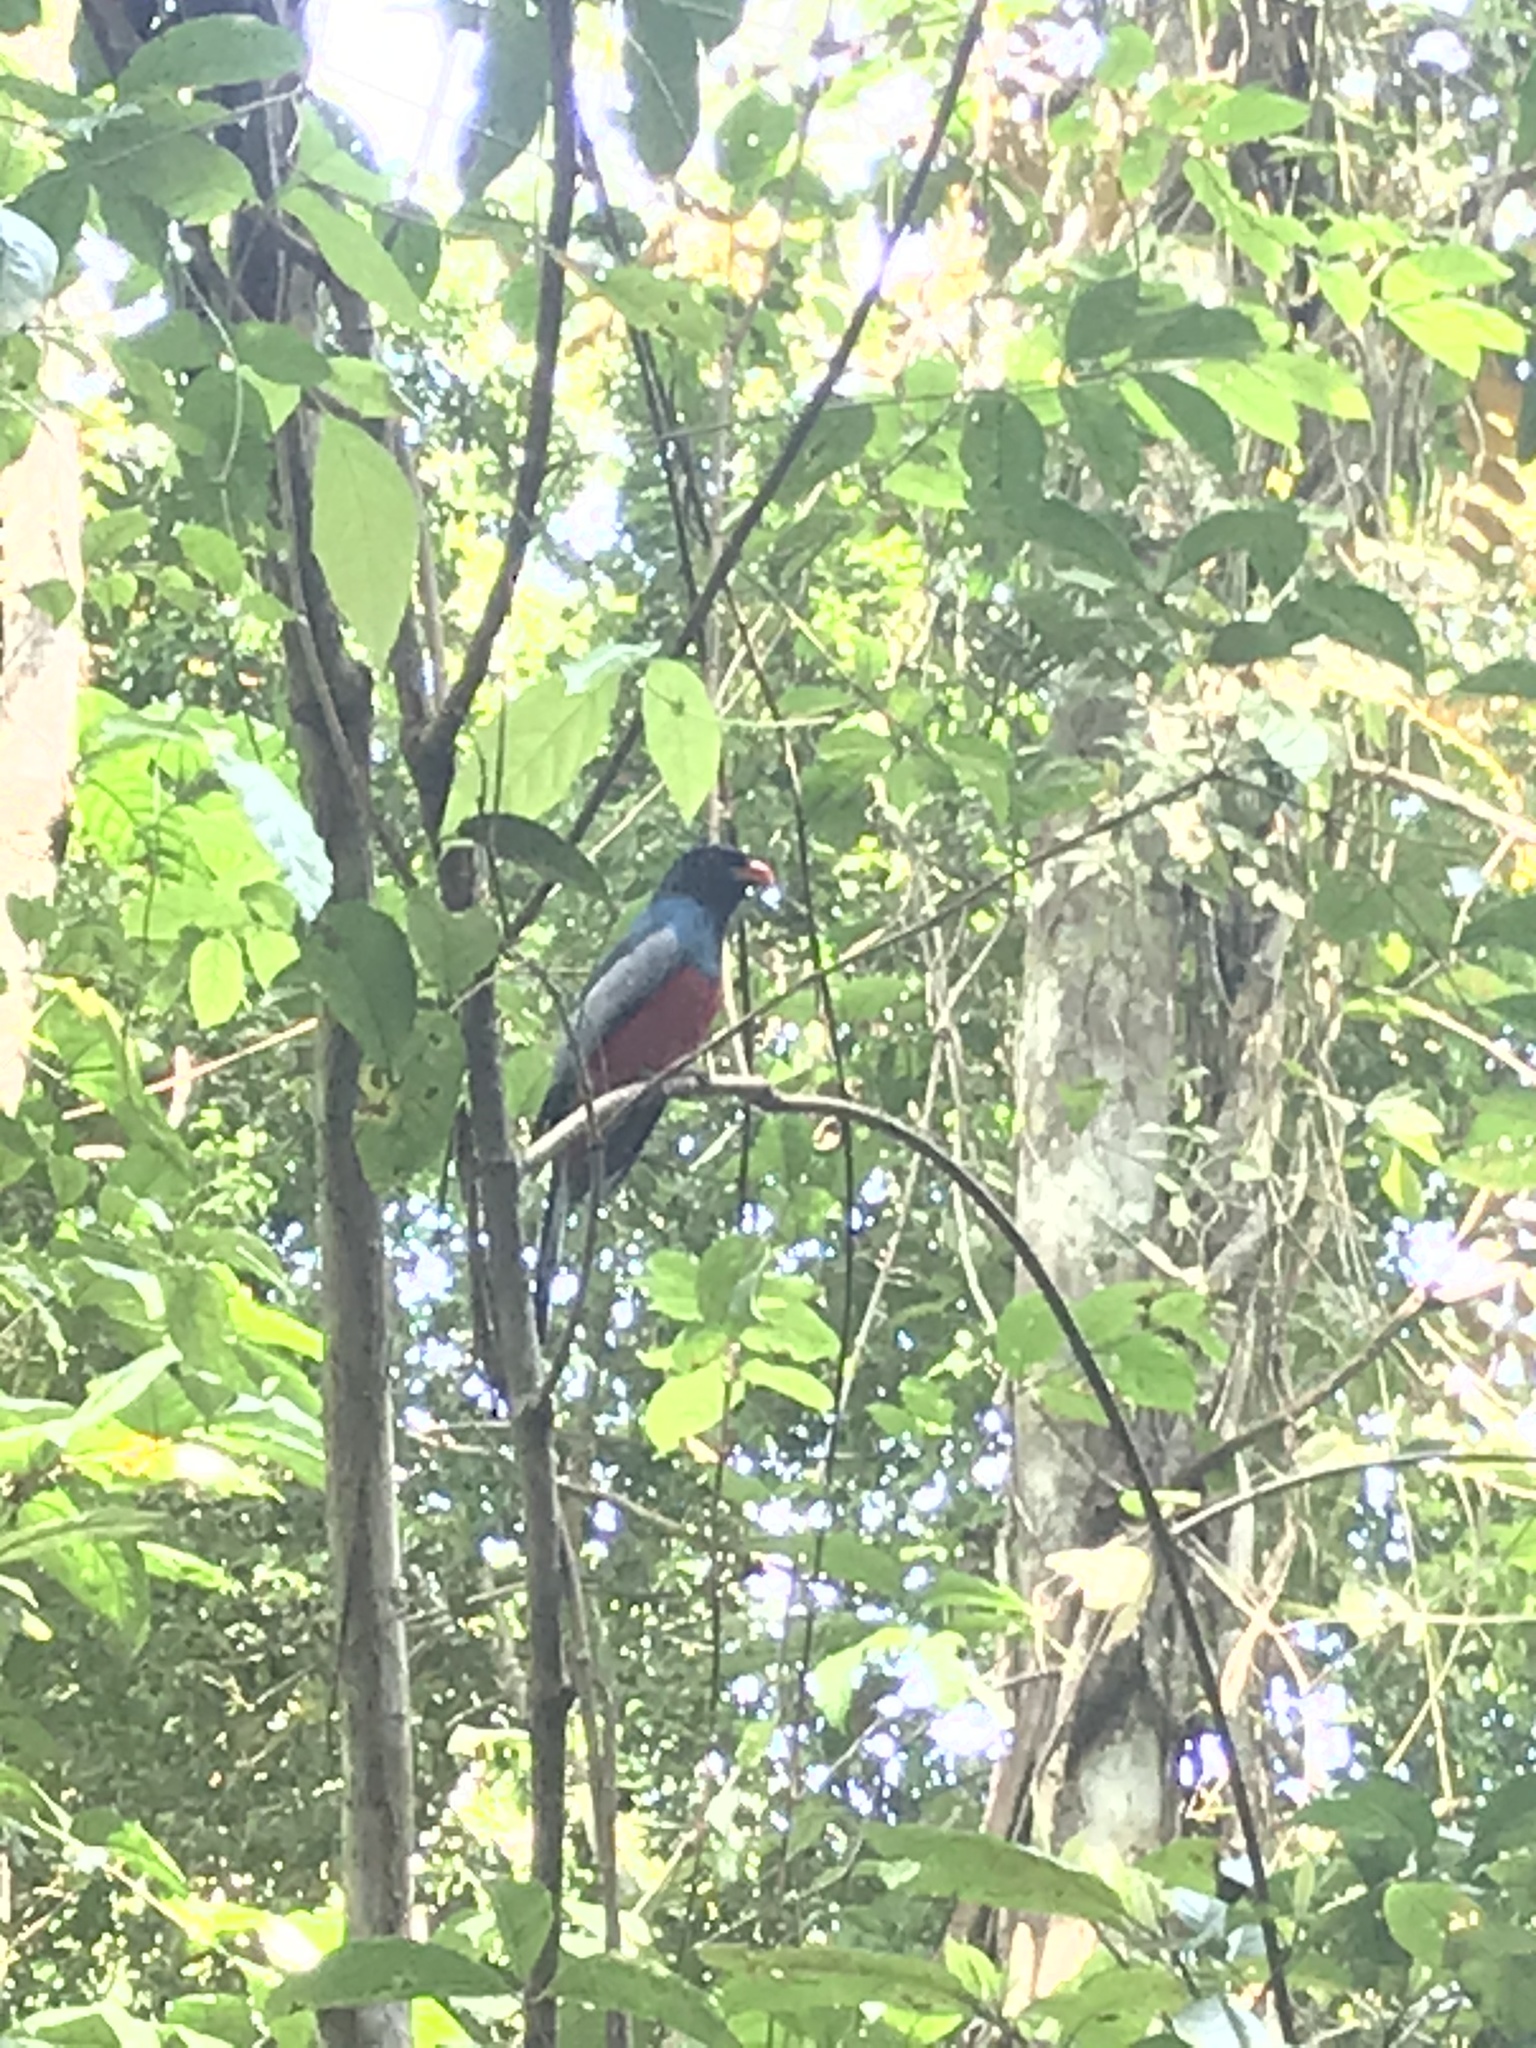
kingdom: Animalia
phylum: Chordata
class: Aves
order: Trogoniformes
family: Trogonidae
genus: Trogon
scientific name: Trogon massena
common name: Slaty-tailed trogon
